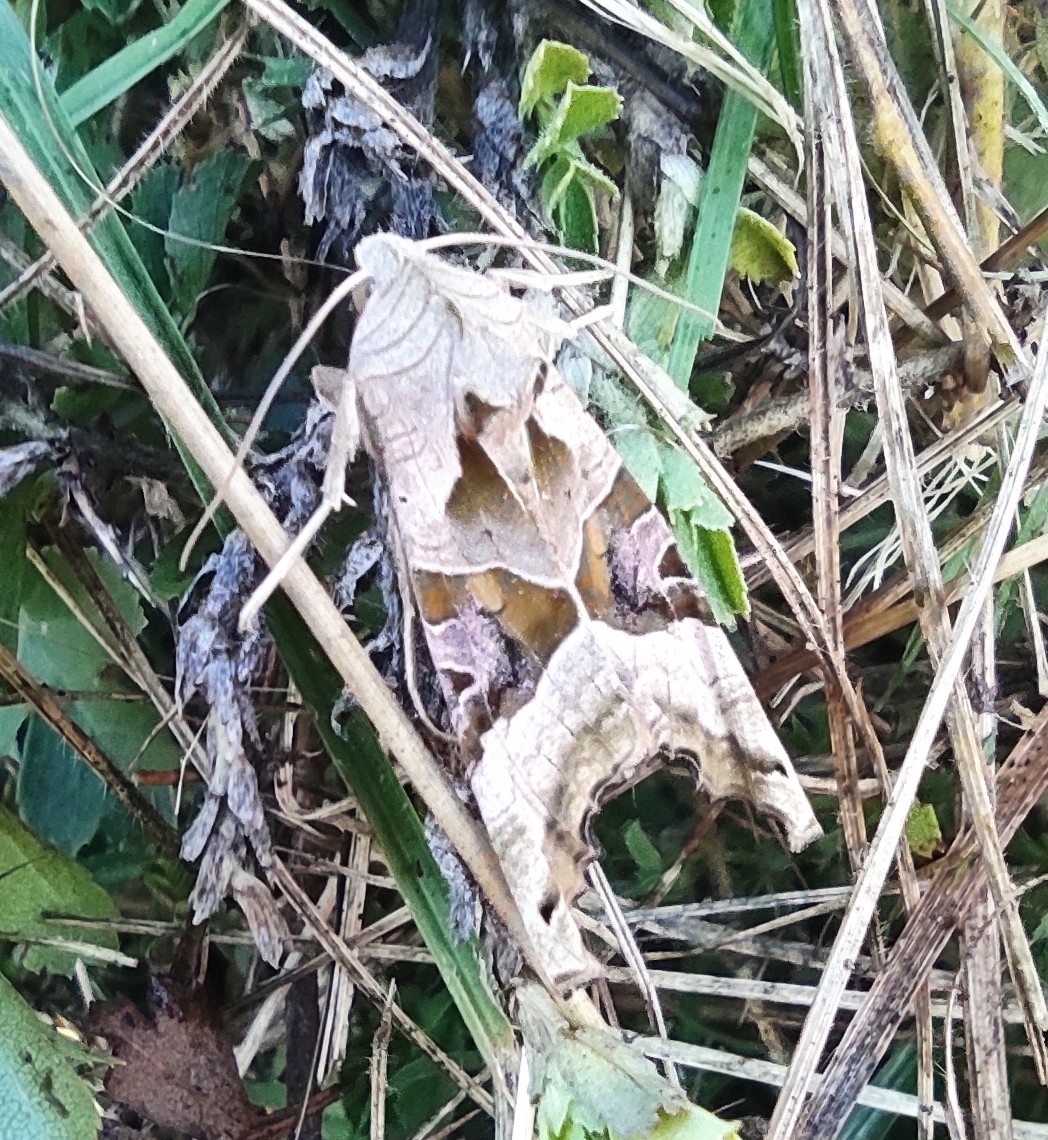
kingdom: Animalia
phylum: Arthropoda
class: Insecta
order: Lepidoptera
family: Noctuidae
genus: Phlogophora
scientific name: Phlogophora meticulosa
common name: Angle shades
